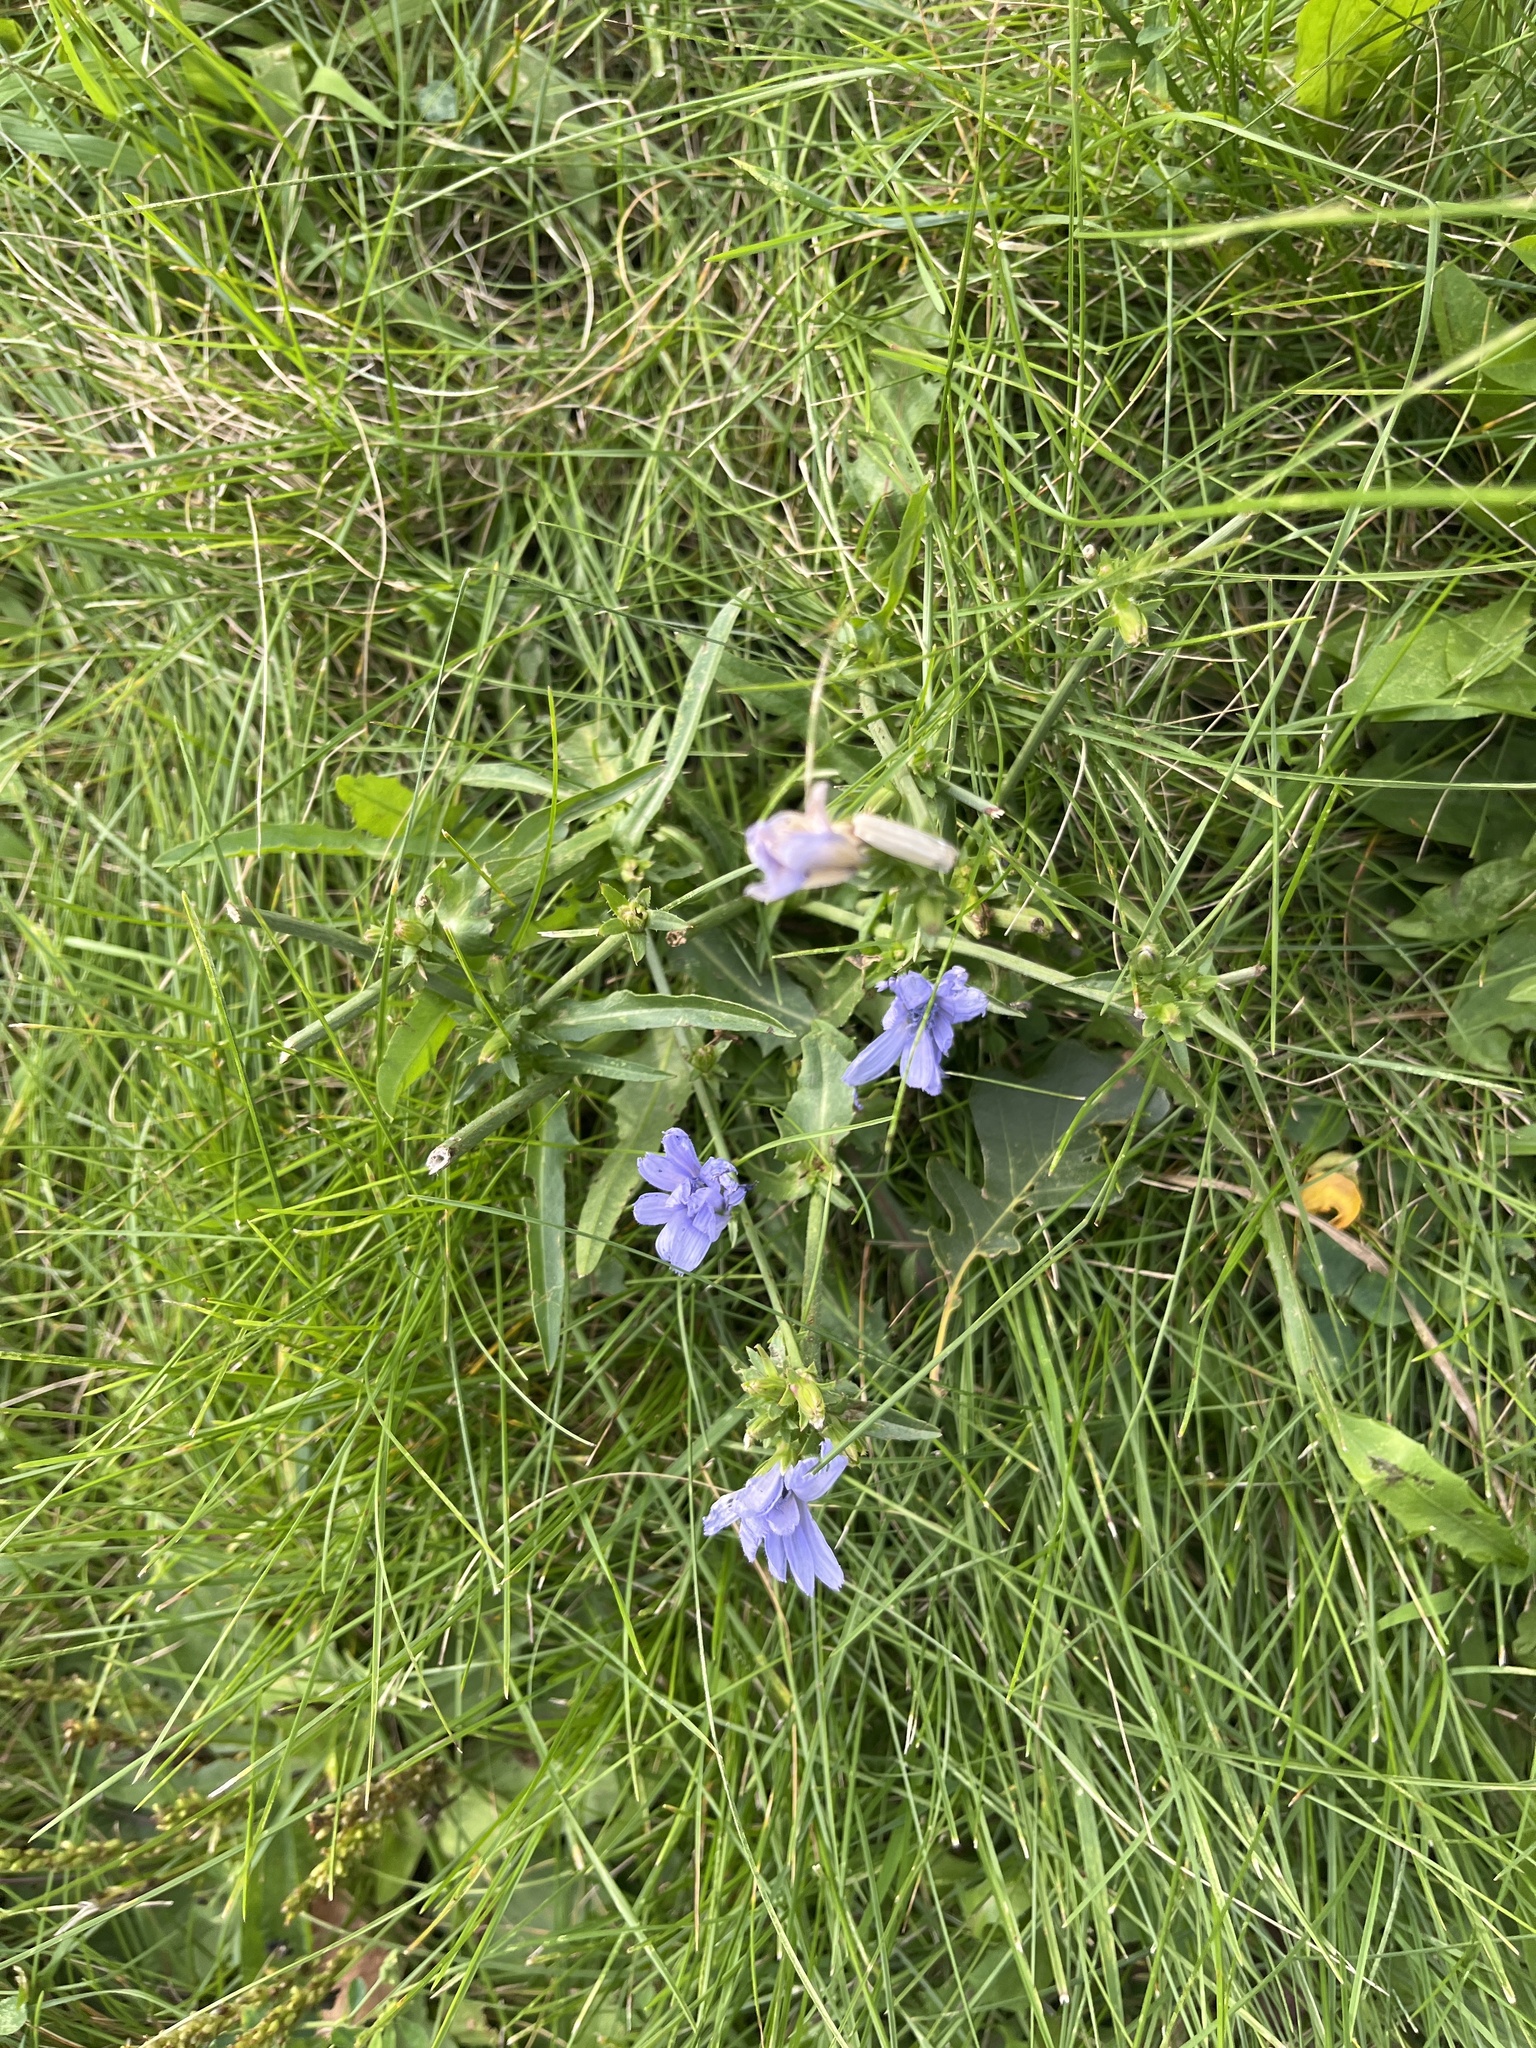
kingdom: Plantae
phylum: Tracheophyta
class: Magnoliopsida
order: Asterales
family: Asteraceae
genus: Cichorium
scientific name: Cichorium intybus
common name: Chicory
